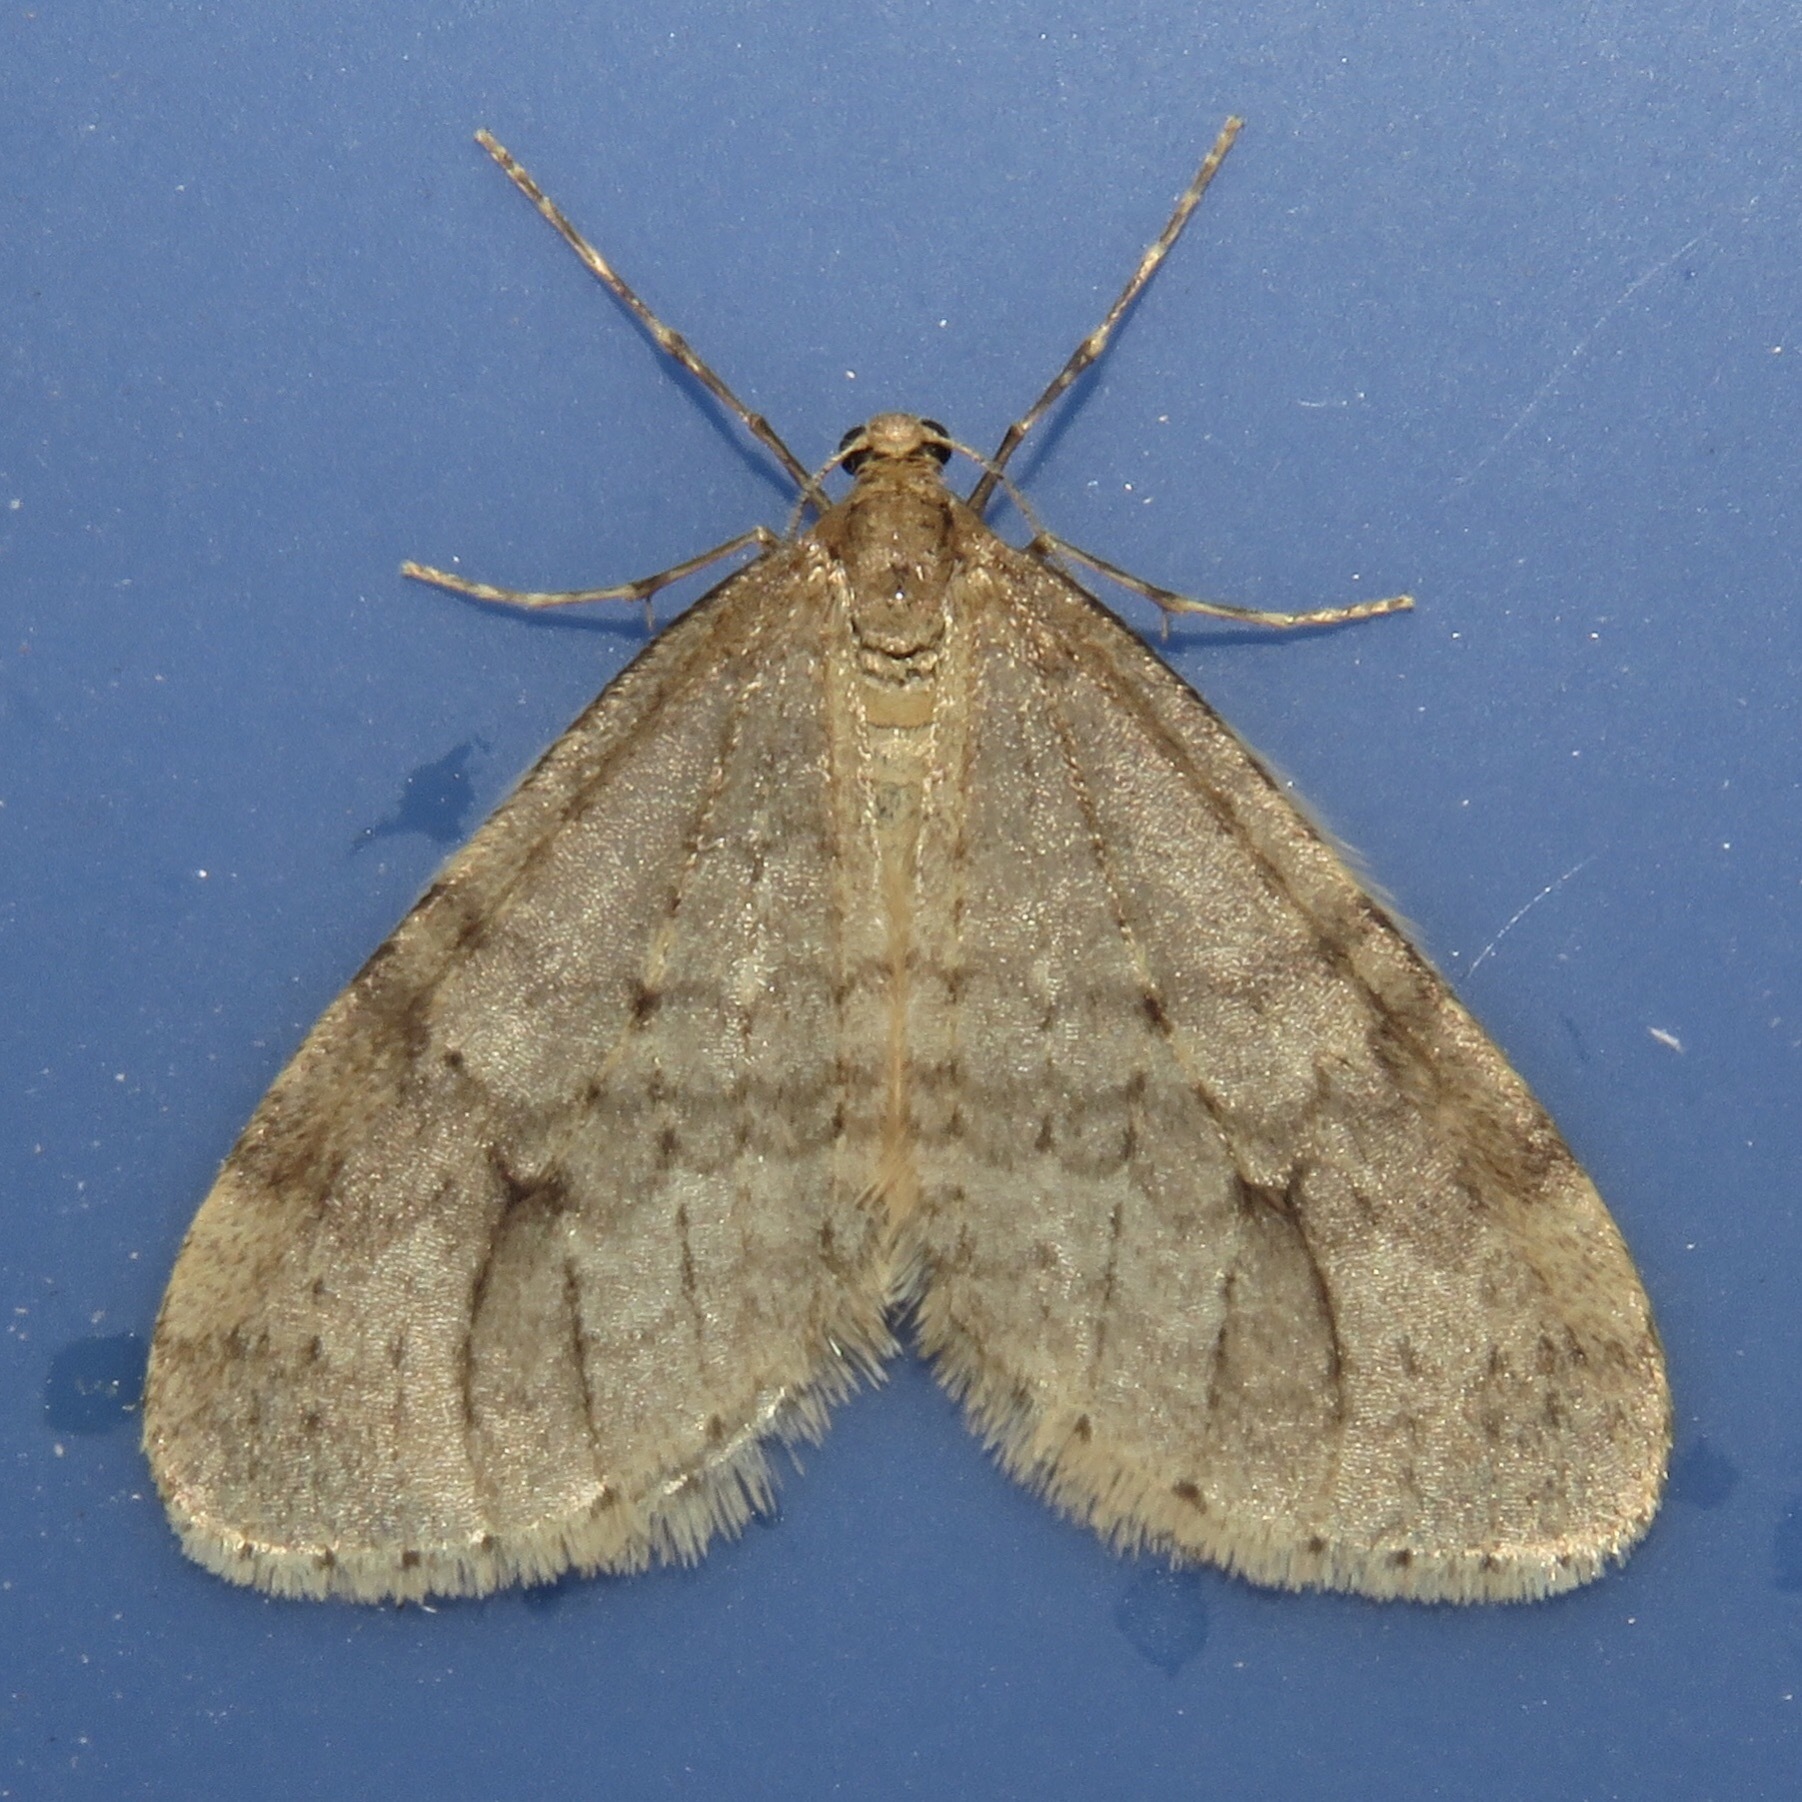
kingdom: Animalia
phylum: Arthropoda
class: Insecta
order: Lepidoptera
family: Geometridae
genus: Operophtera
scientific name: Operophtera bruceata
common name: Bruce spanworm
